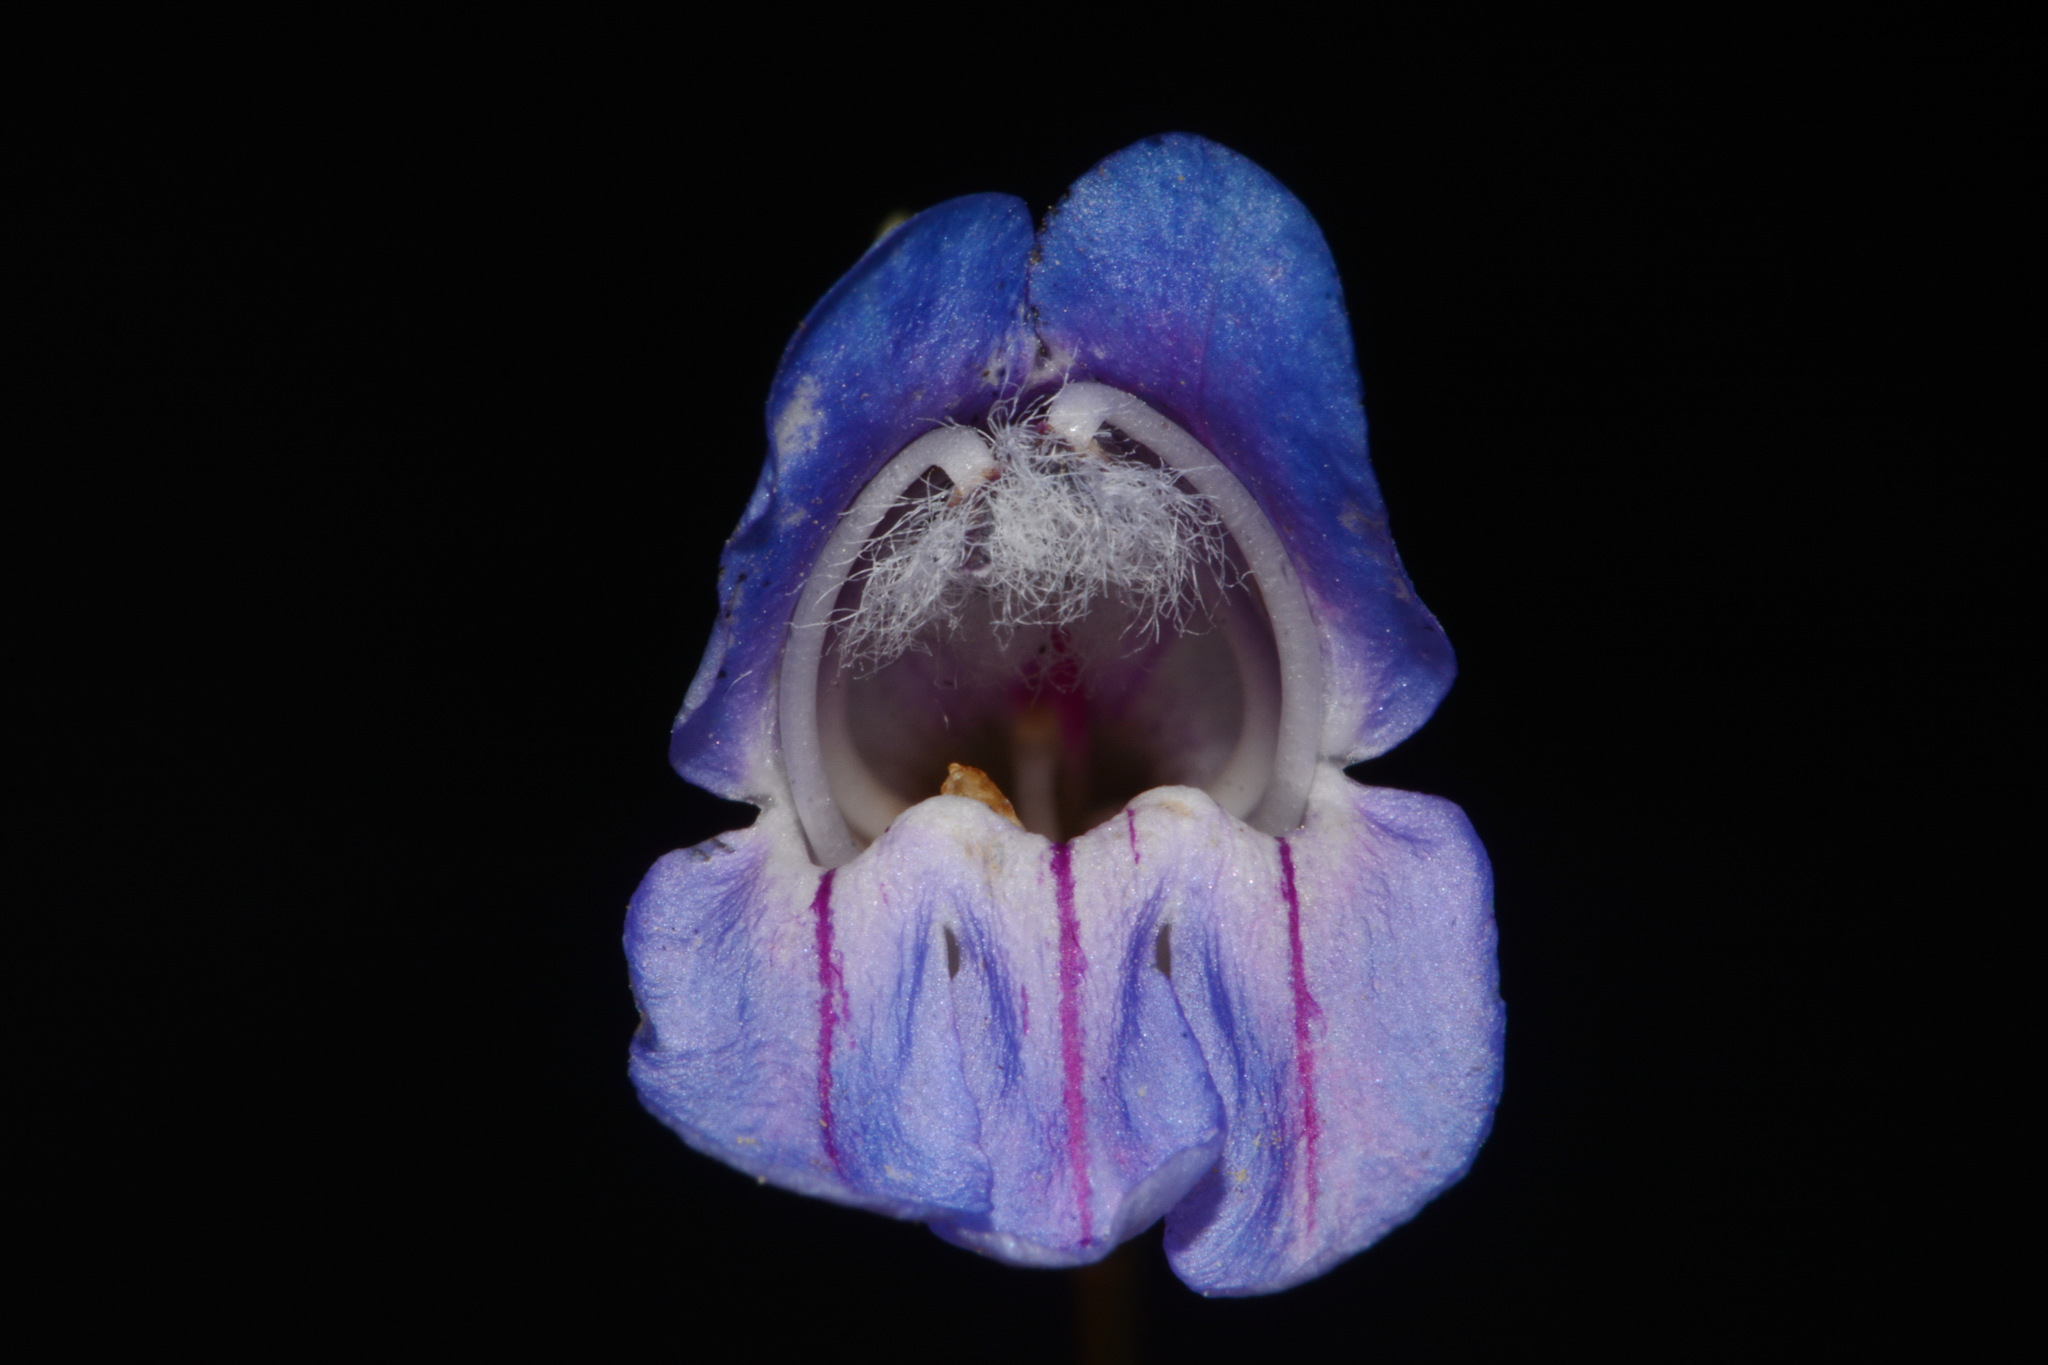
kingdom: Plantae
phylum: Tracheophyta
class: Magnoliopsida
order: Lamiales
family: Plantaginaceae
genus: Penstemon
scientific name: Penstemon comarrhenus
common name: Dusty penstemon
